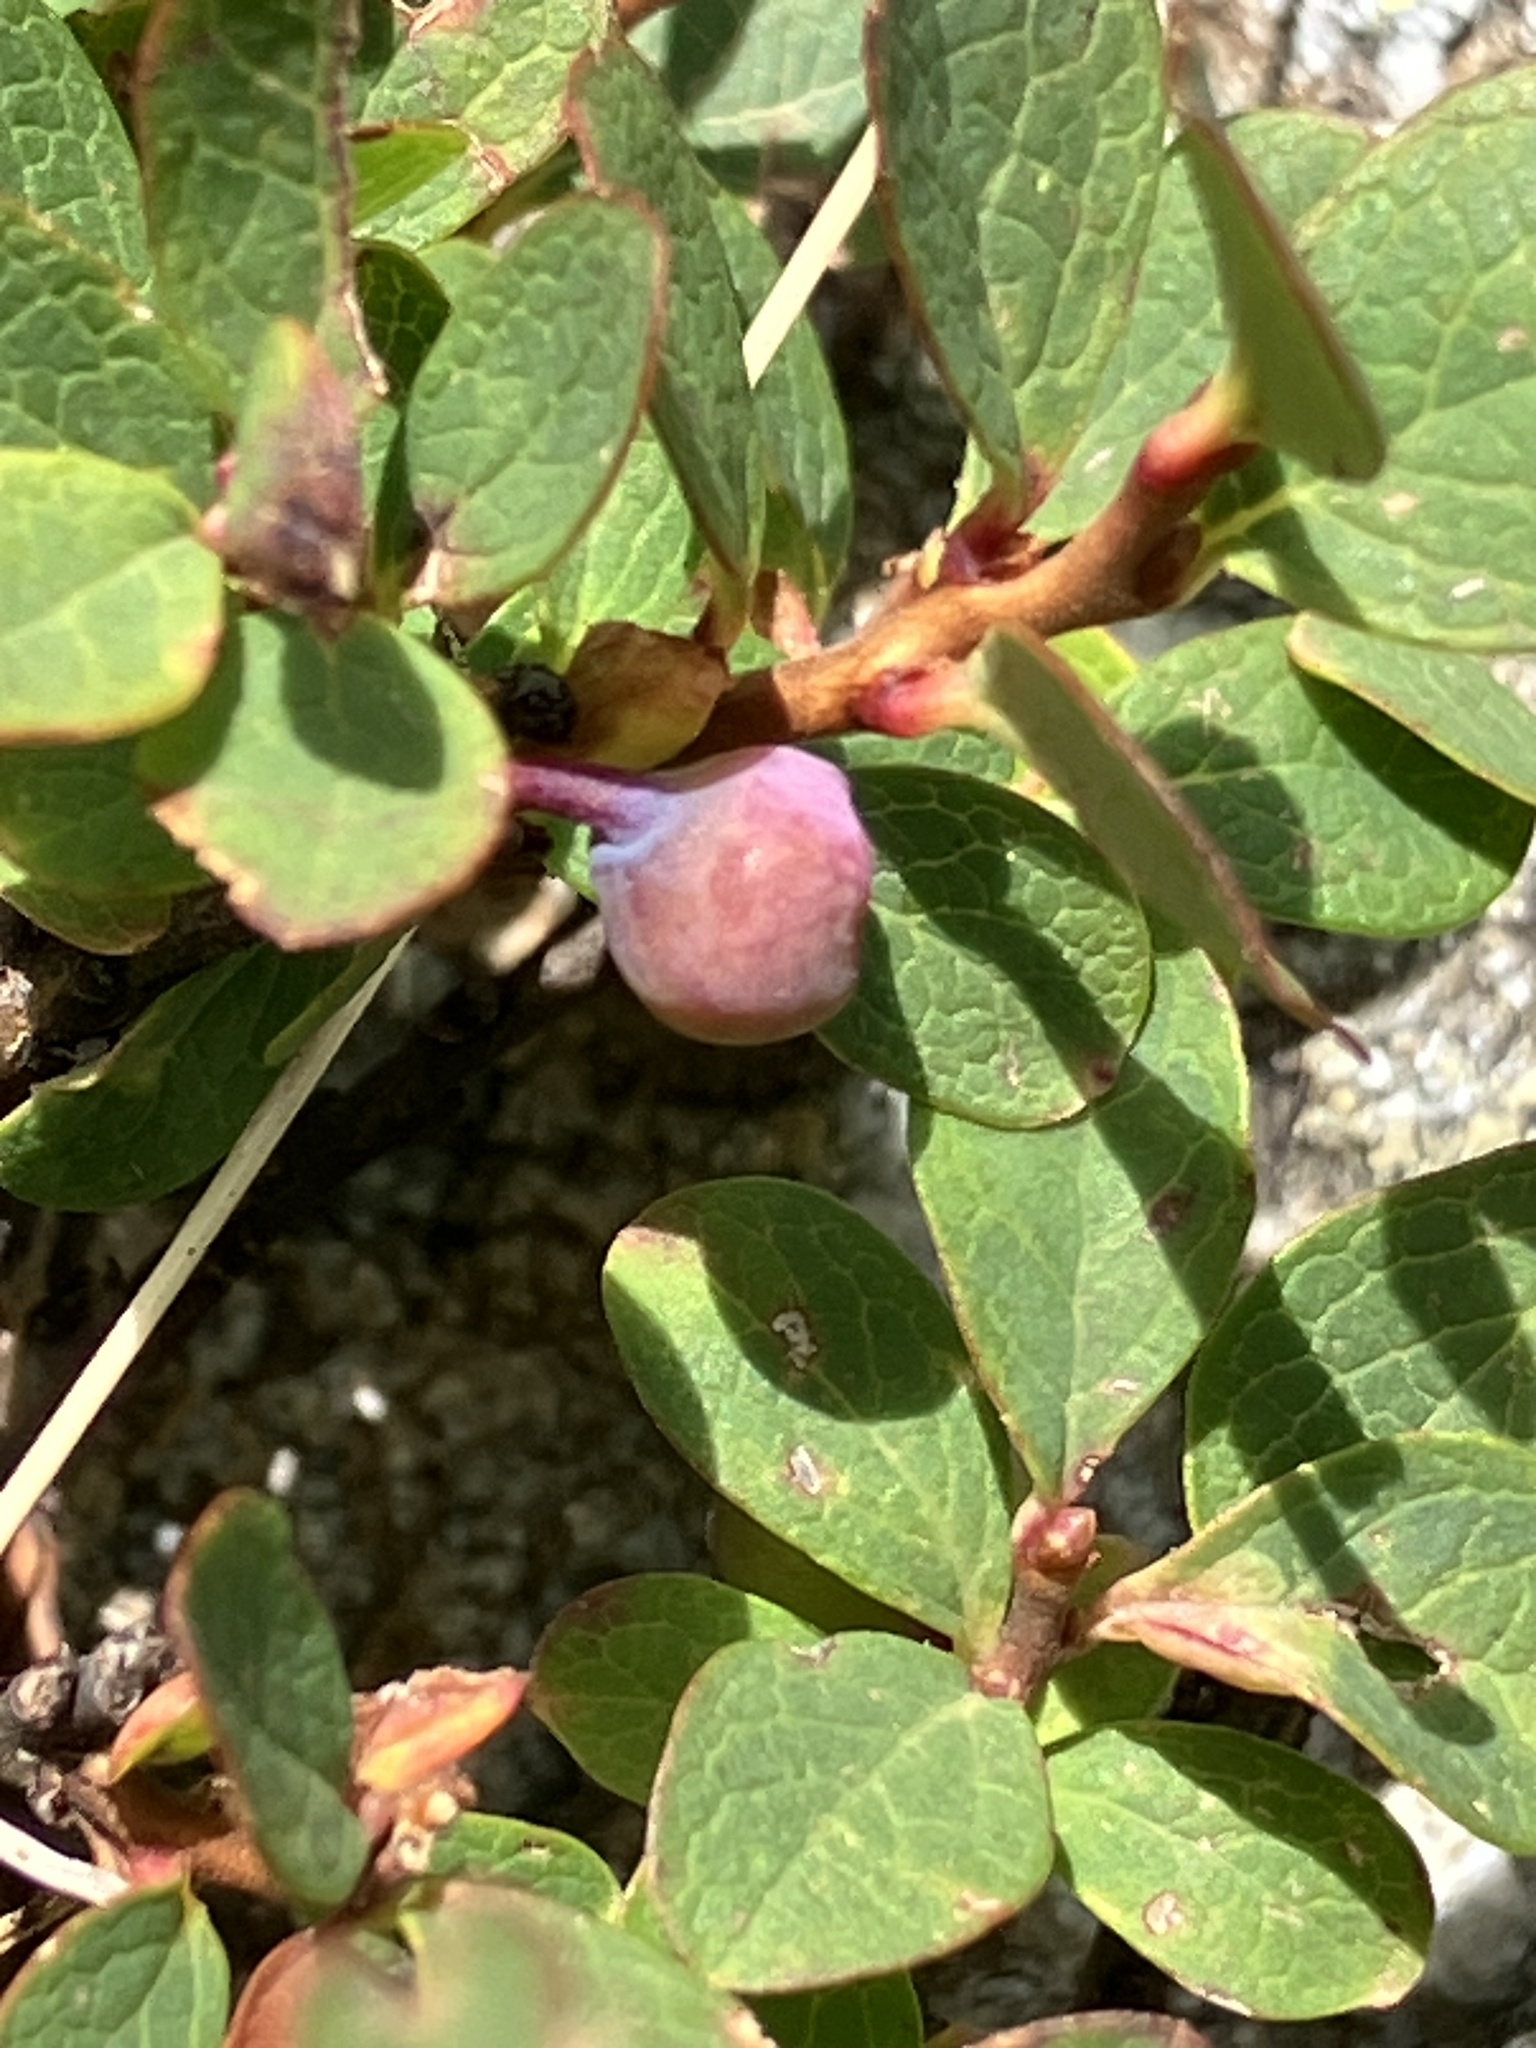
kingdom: Plantae
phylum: Tracheophyta
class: Magnoliopsida
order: Ericales
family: Ericaceae
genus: Vaccinium
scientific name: Vaccinium uliginosum
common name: Bog bilberry
